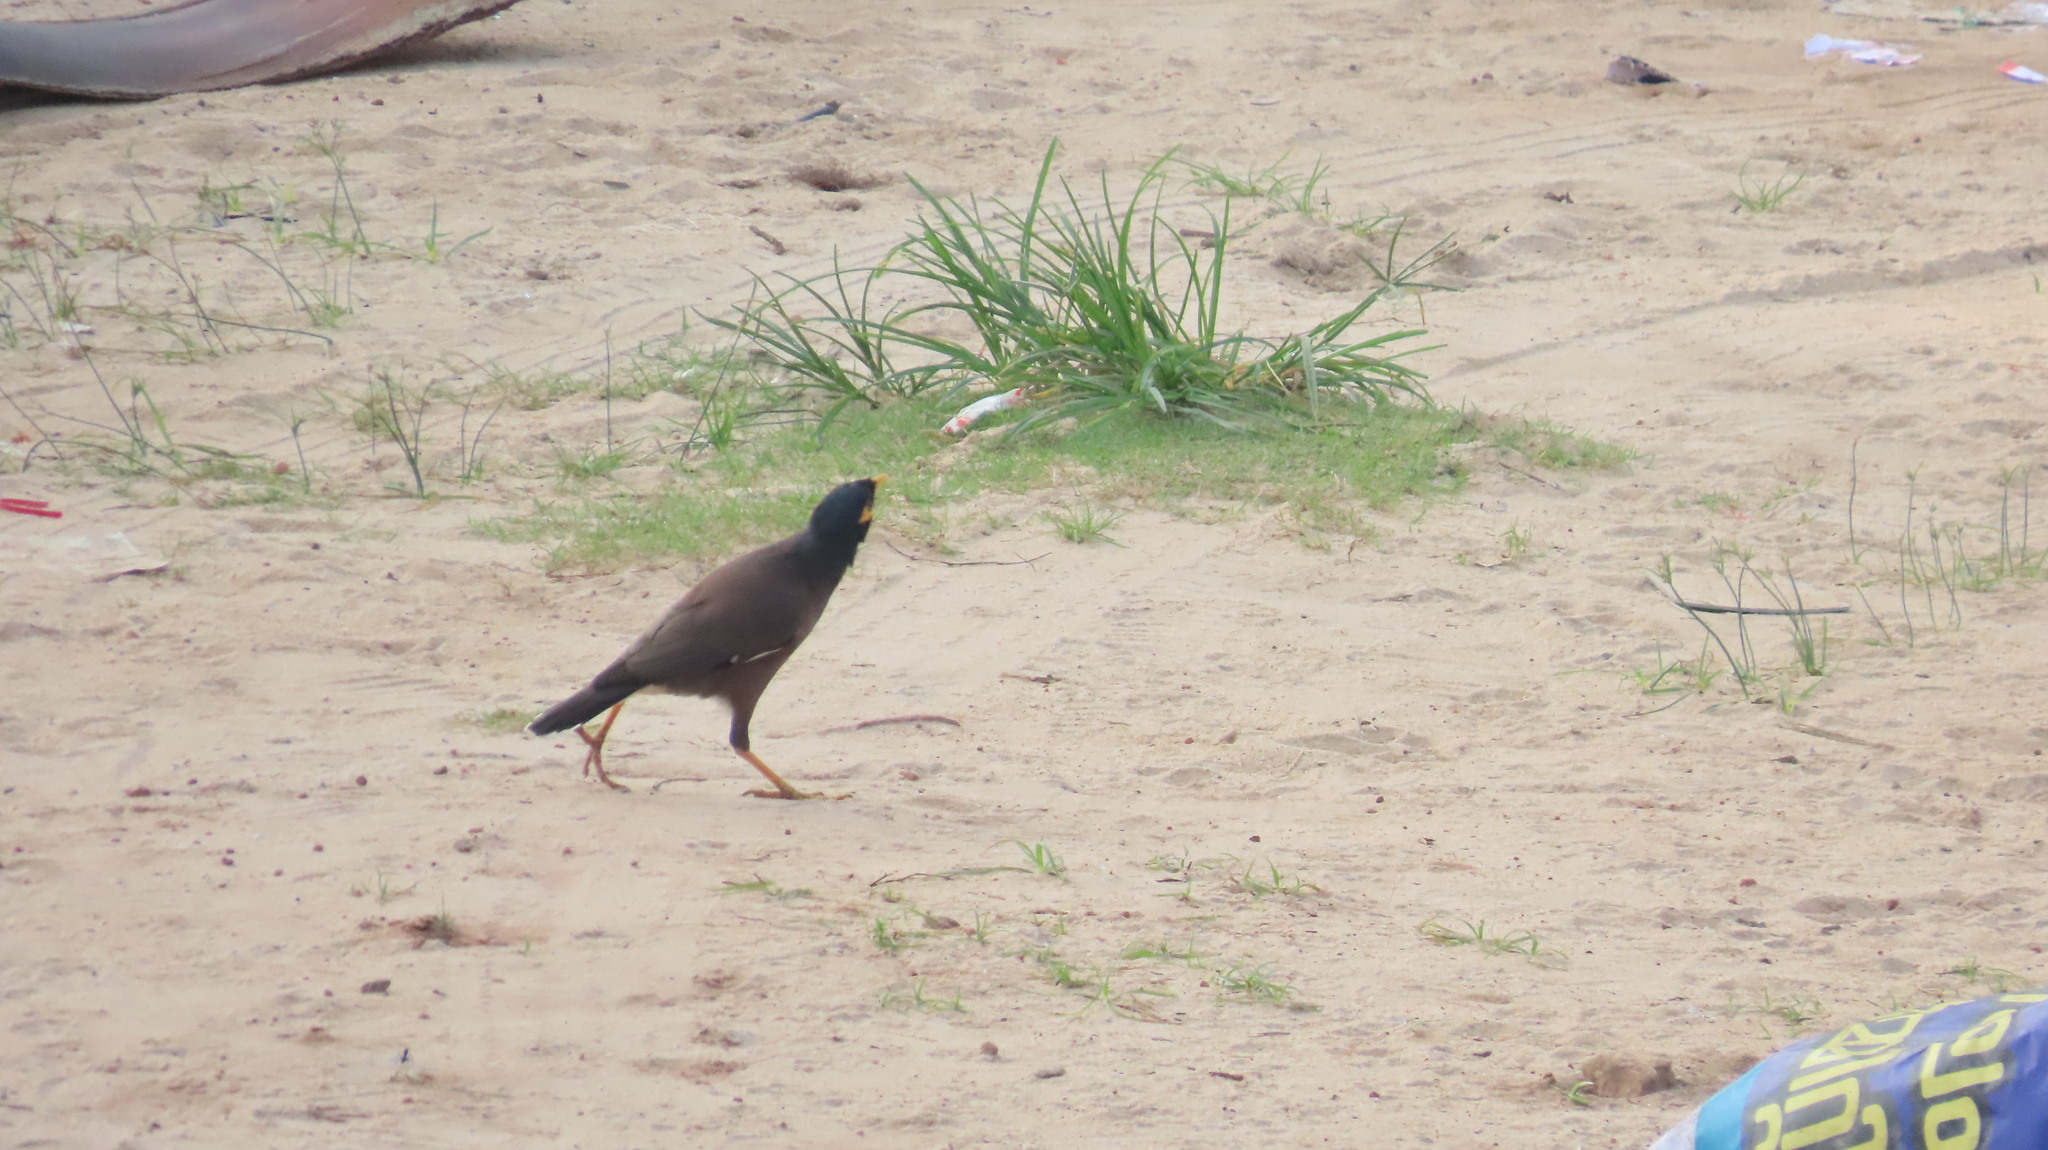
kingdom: Animalia
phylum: Chordata
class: Aves
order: Passeriformes
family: Sturnidae
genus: Acridotheres
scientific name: Acridotheres tristis
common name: Common myna
